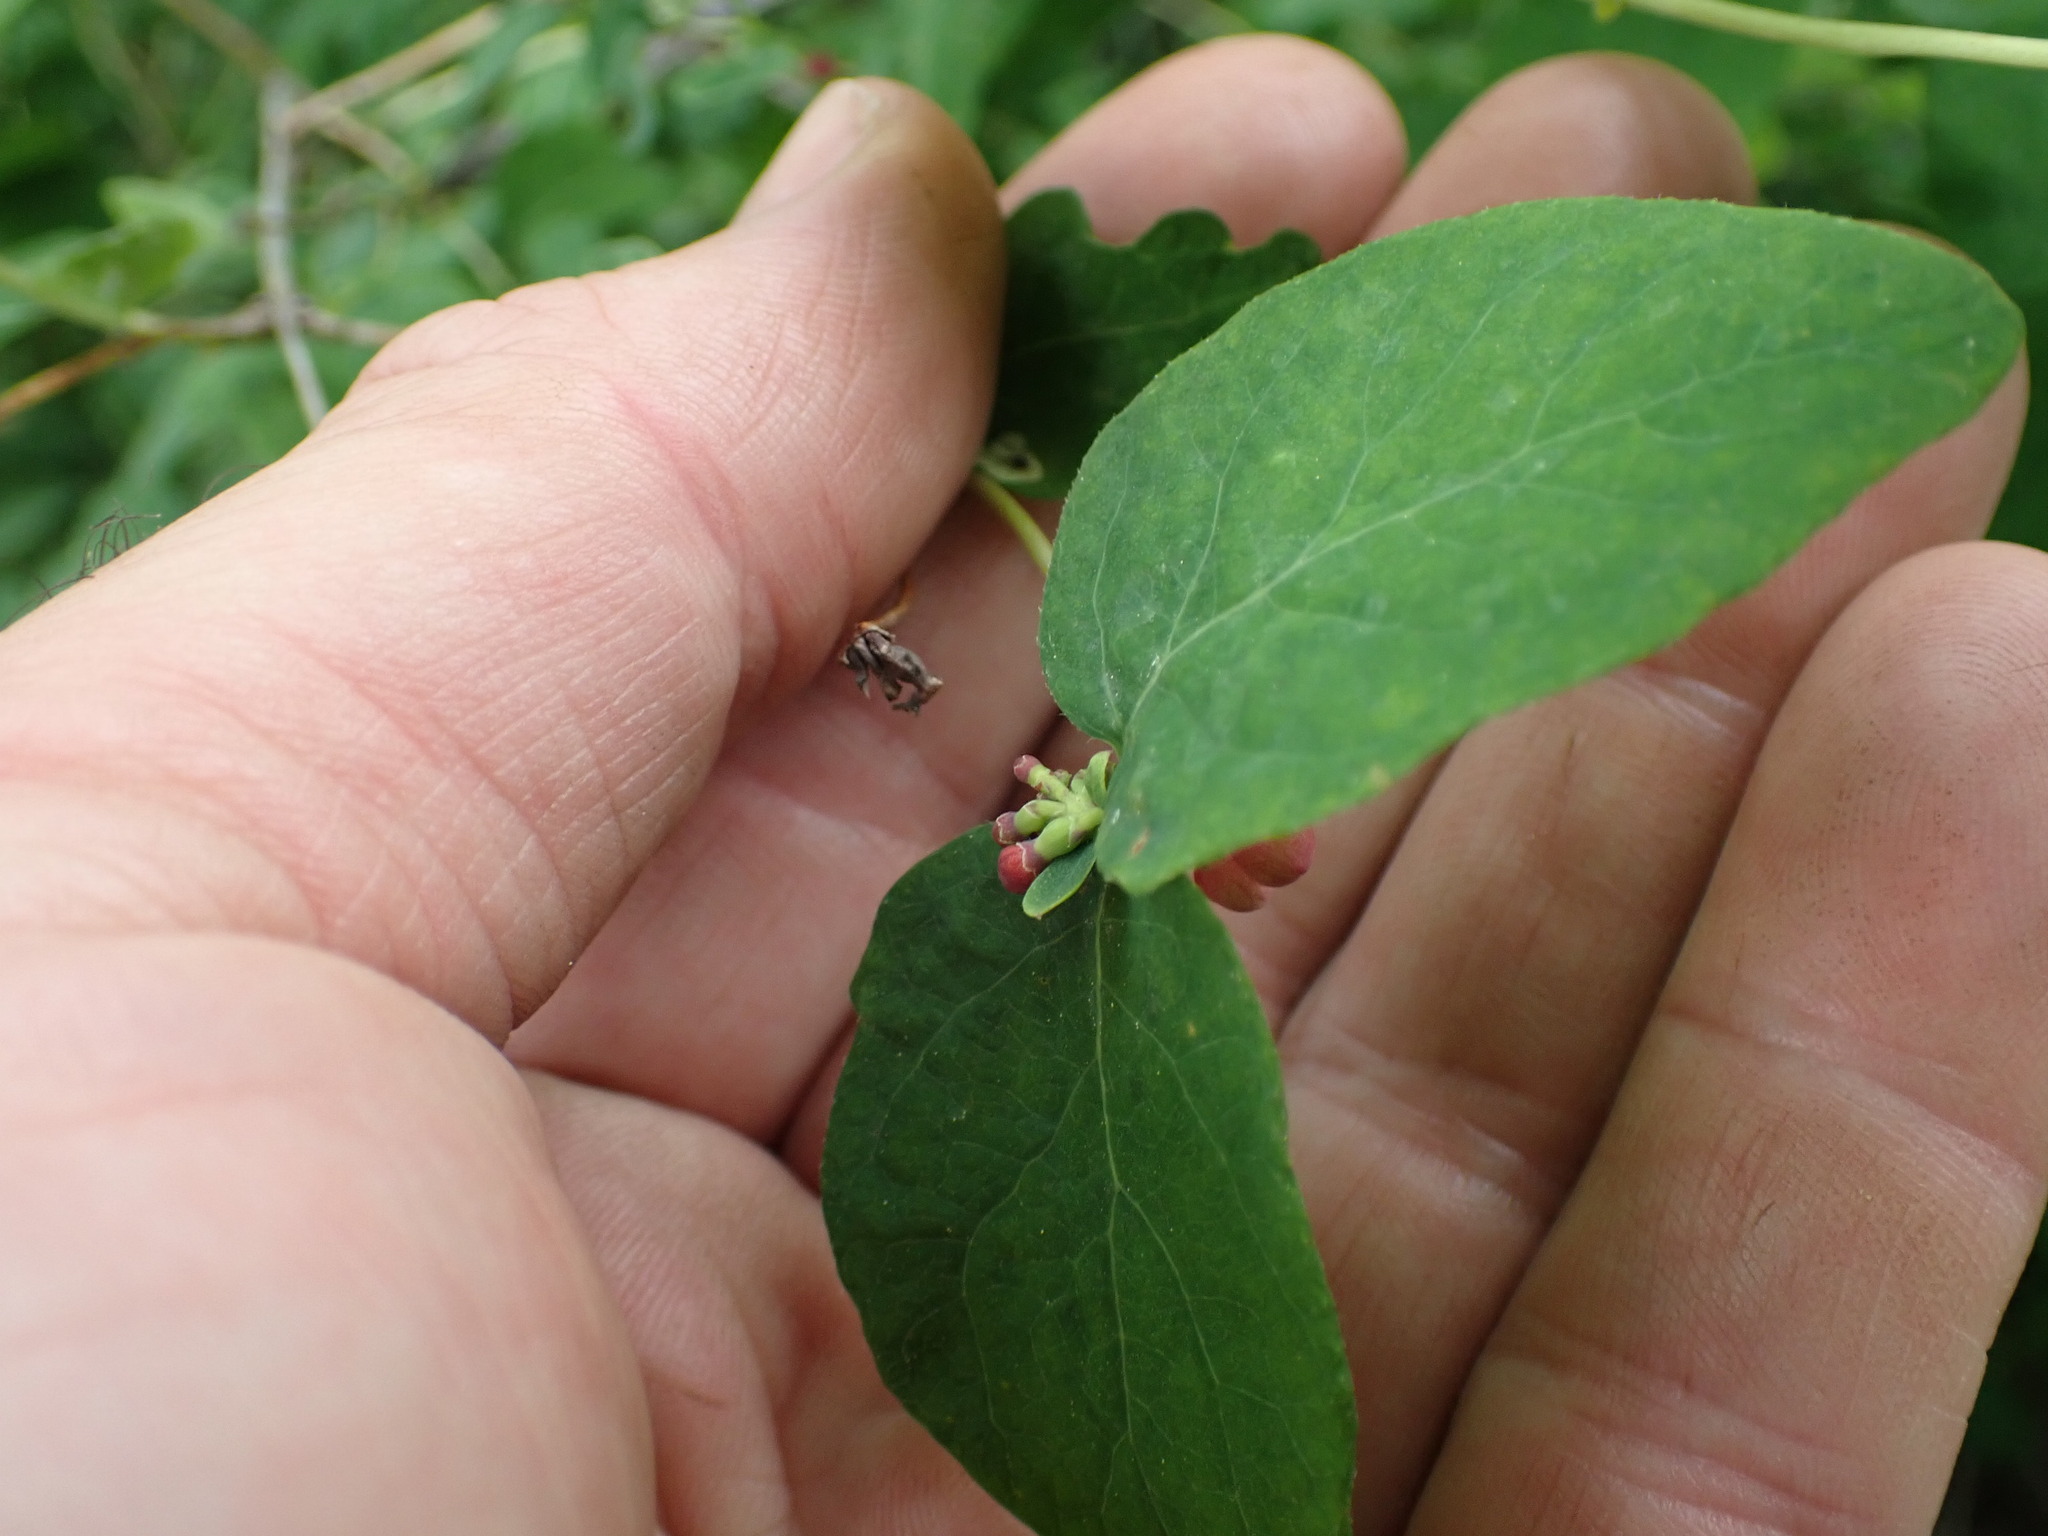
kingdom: Plantae
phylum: Tracheophyta
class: Magnoliopsida
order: Dipsacales
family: Caprifoliaceae
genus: Symphoricarpos
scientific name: Symphoricarpos albus
